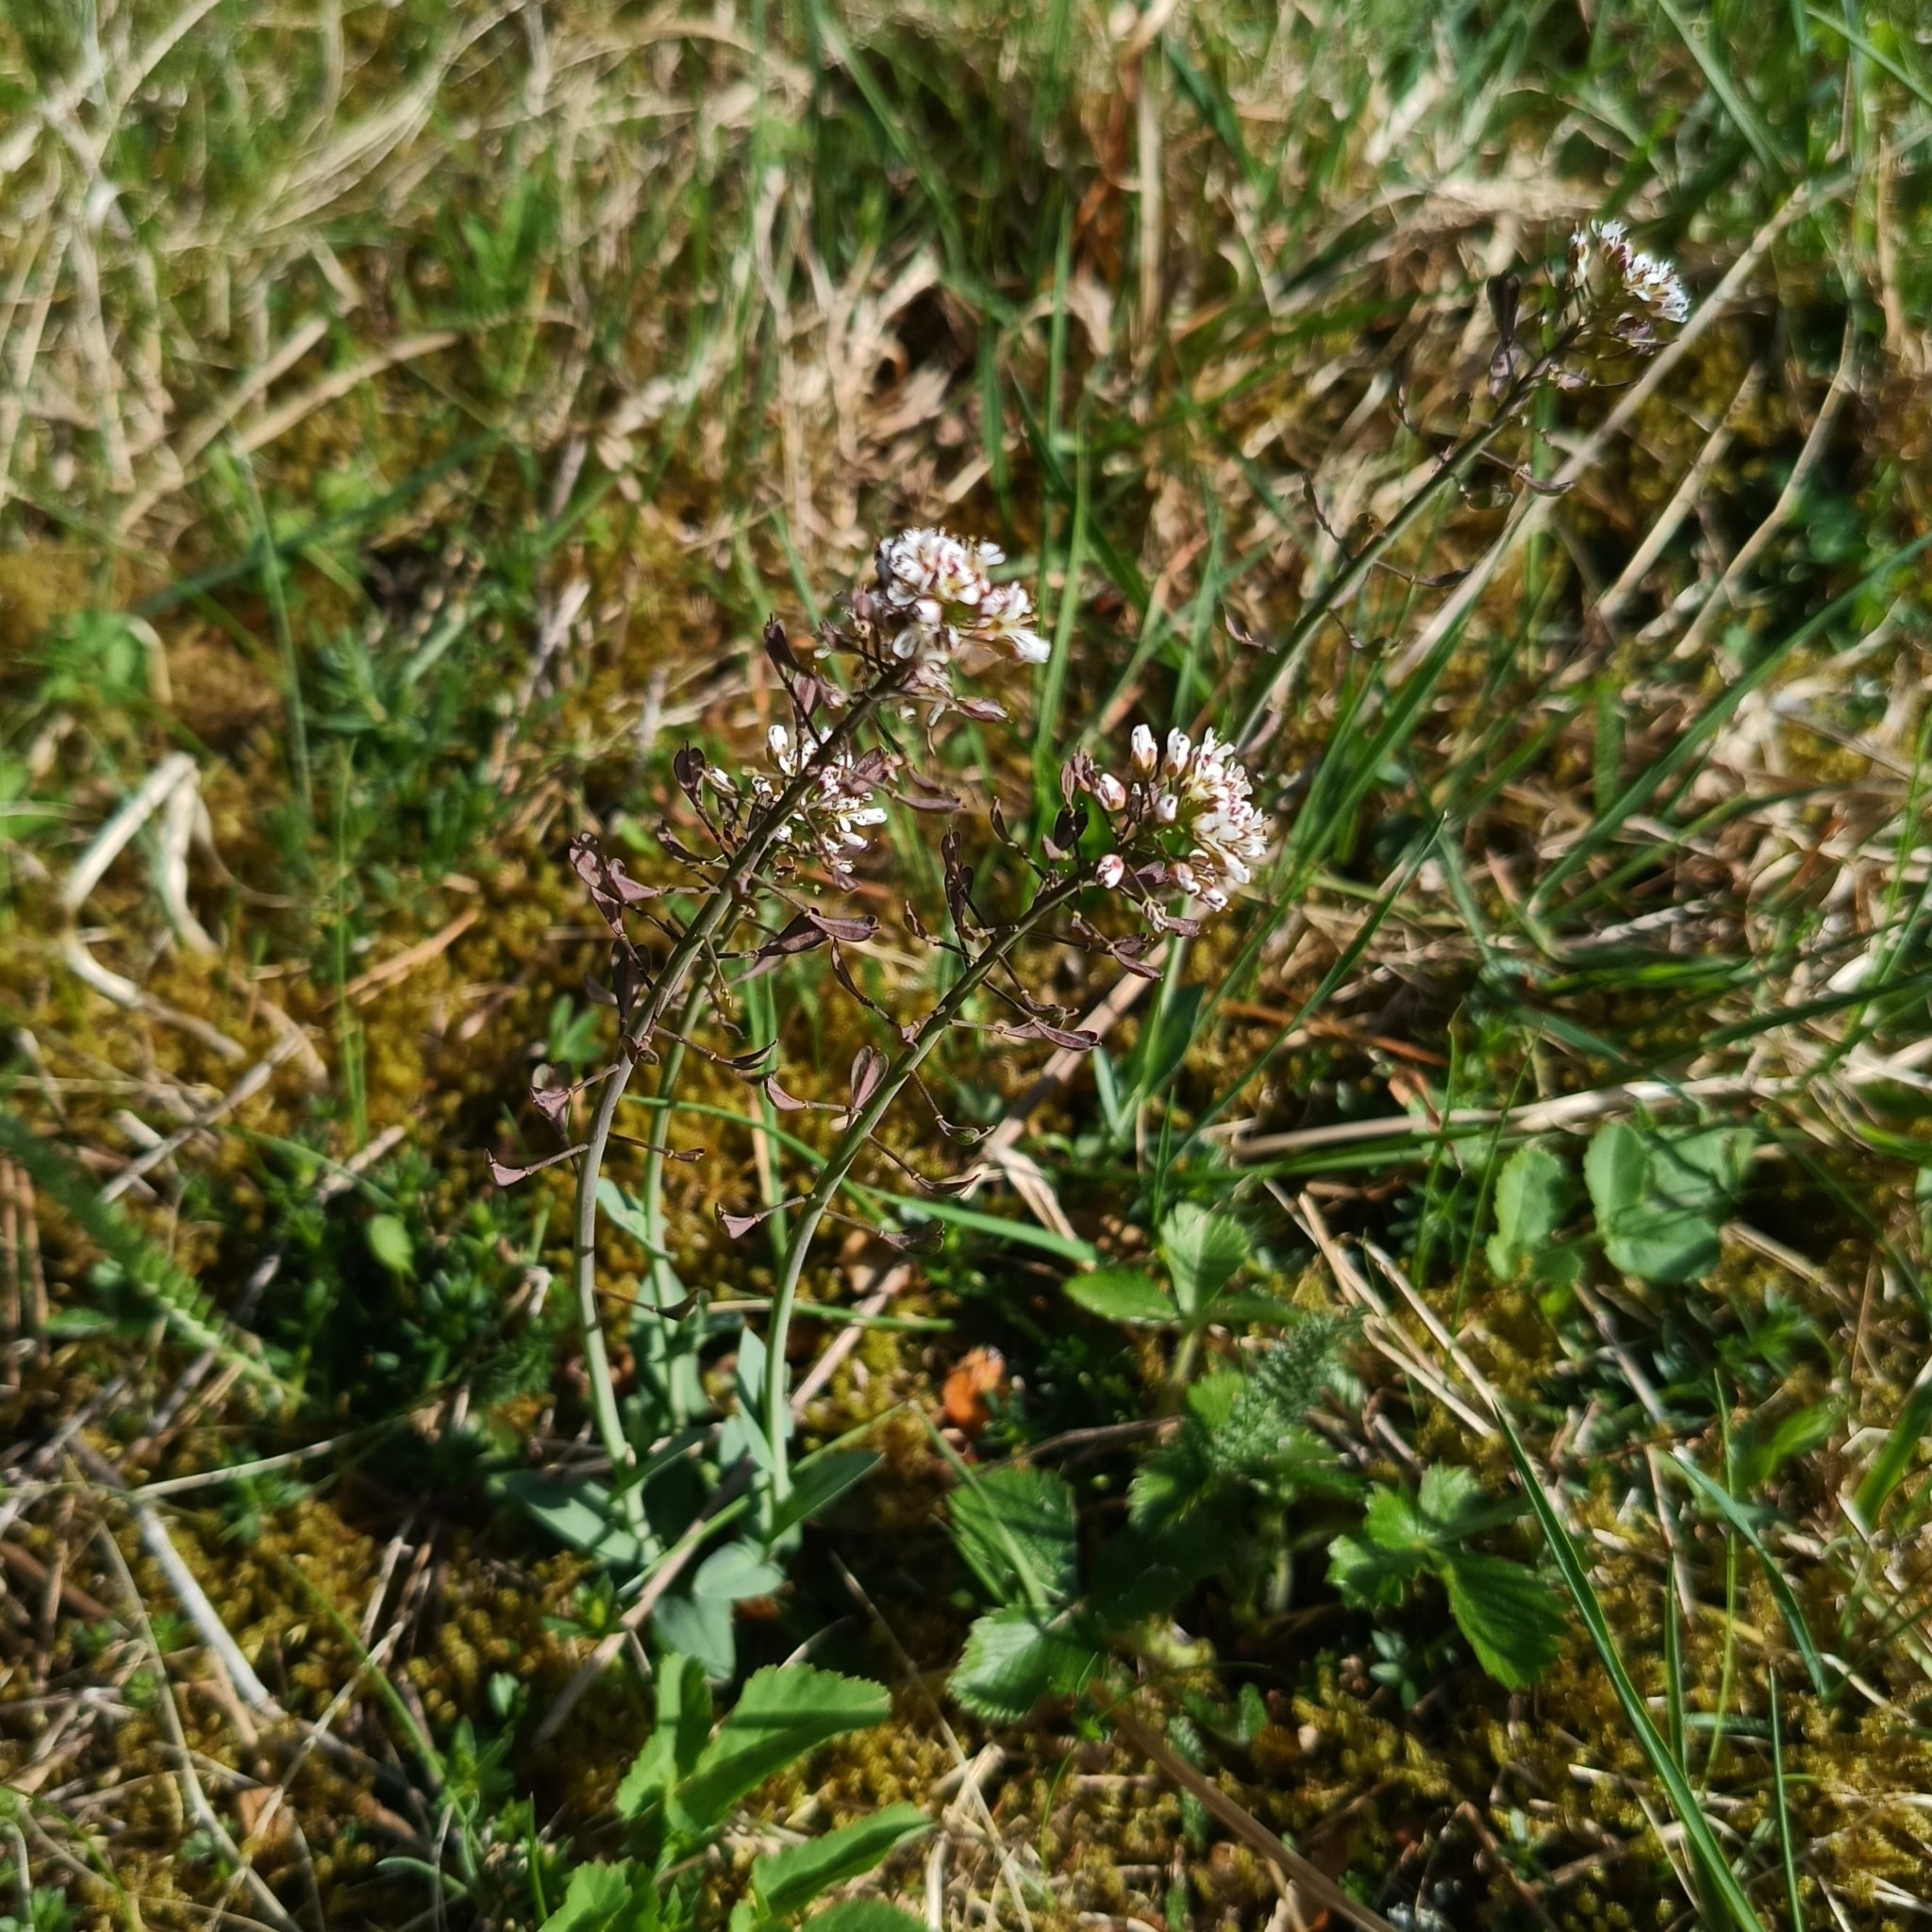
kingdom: Plantae
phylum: Tracheophyta
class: Magnoliopsida
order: Brassicales
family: Brassicaceae
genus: Noccaea
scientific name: Noccaea caerulescens
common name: Alpine pennycress
